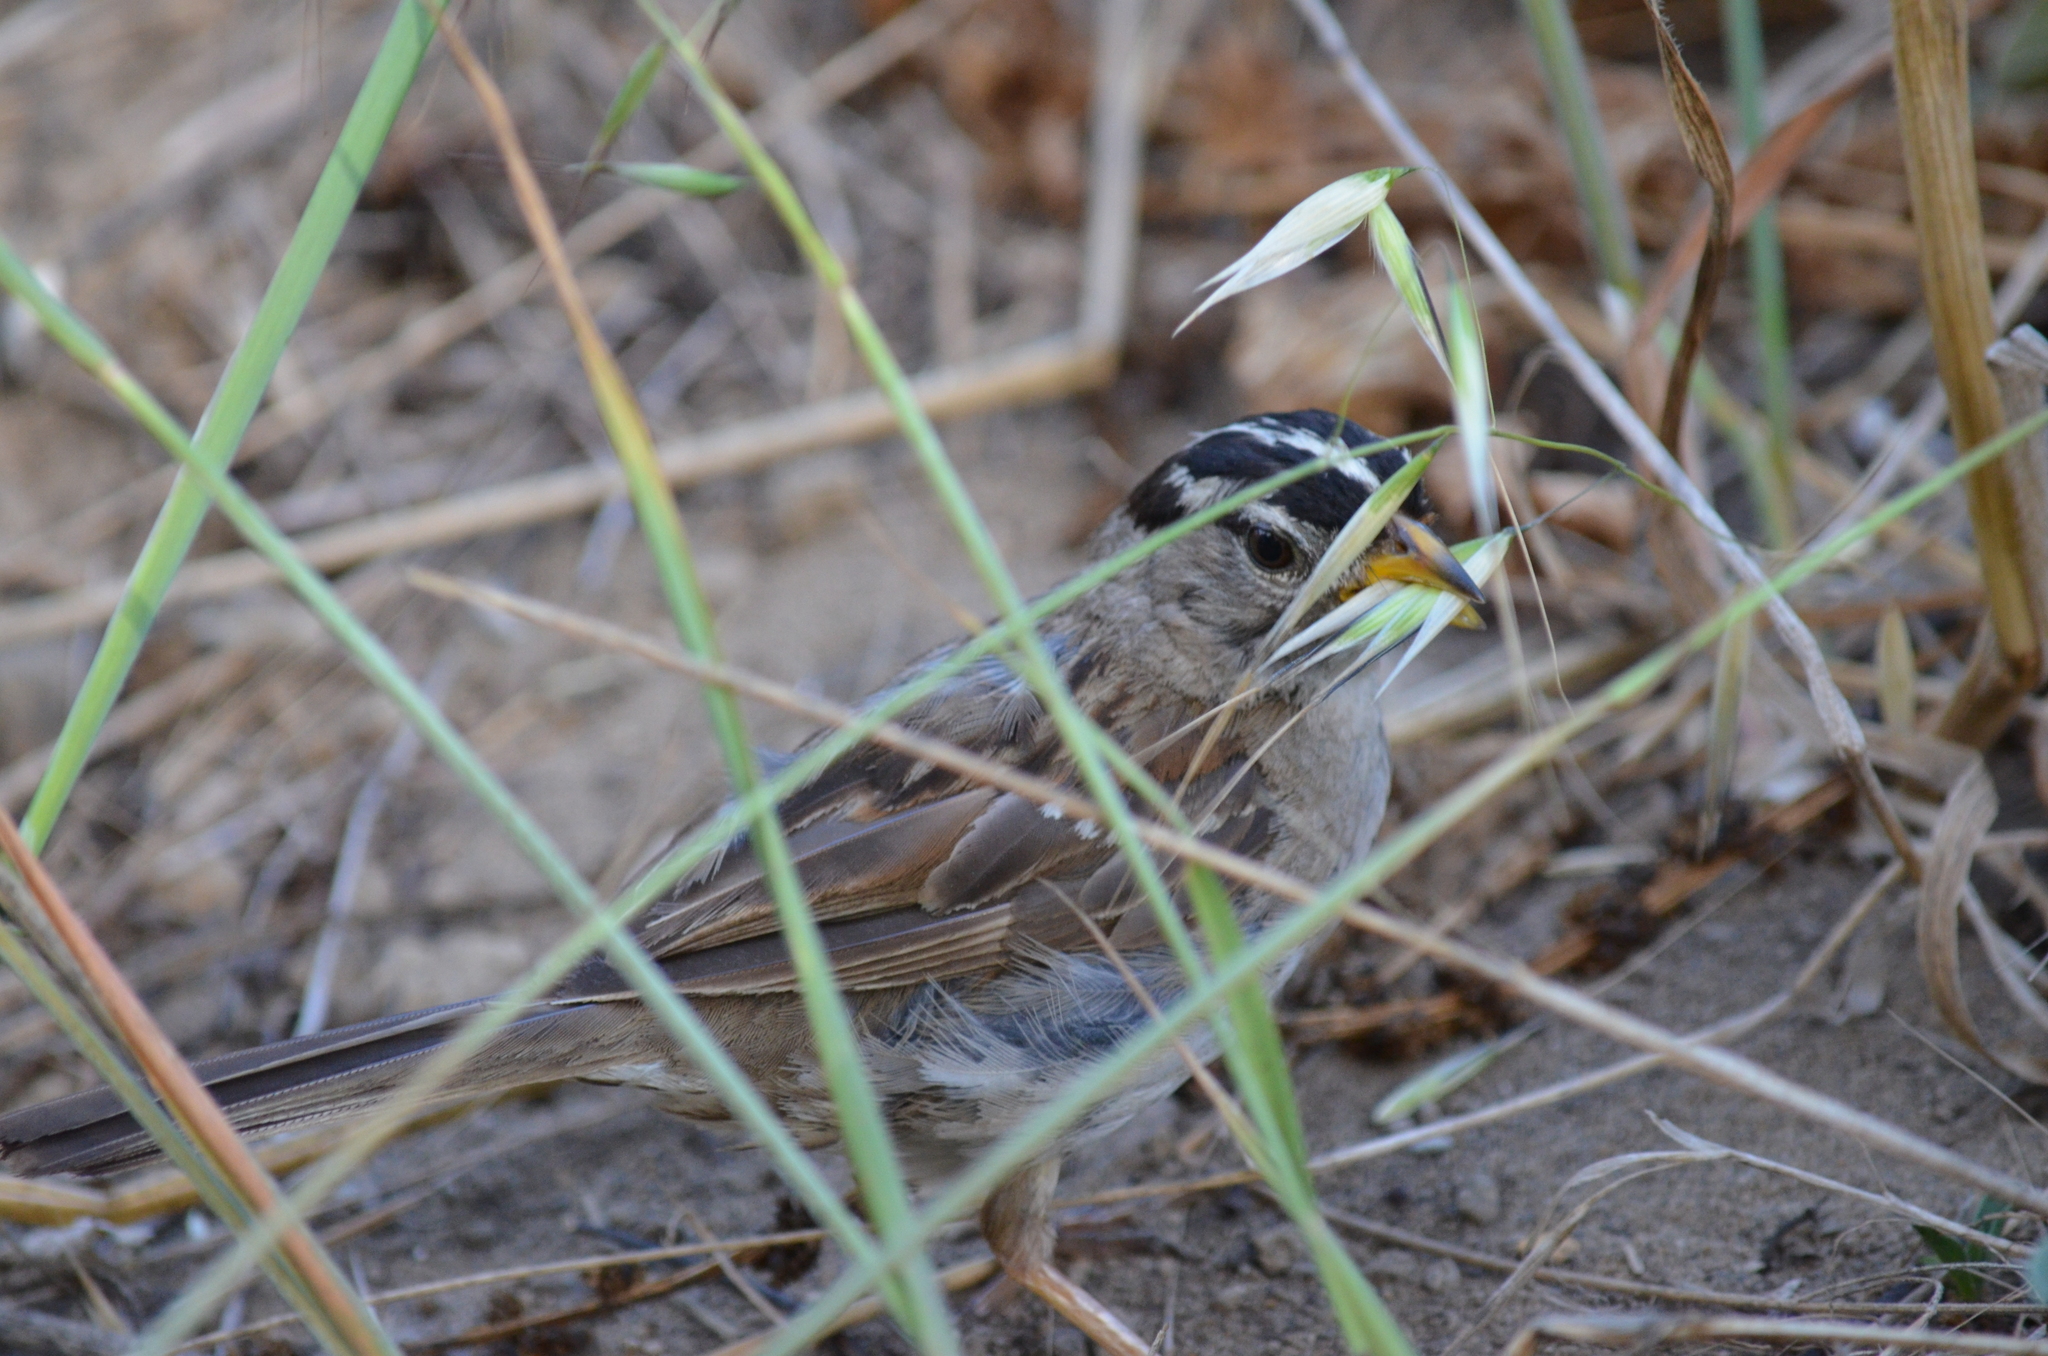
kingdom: Animalia
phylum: Chordata
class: Aves
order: Passeriformes
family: Passerellidae
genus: Zonotrichia
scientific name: Zonotrichia leucophrys
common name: White-crowned sparrow
